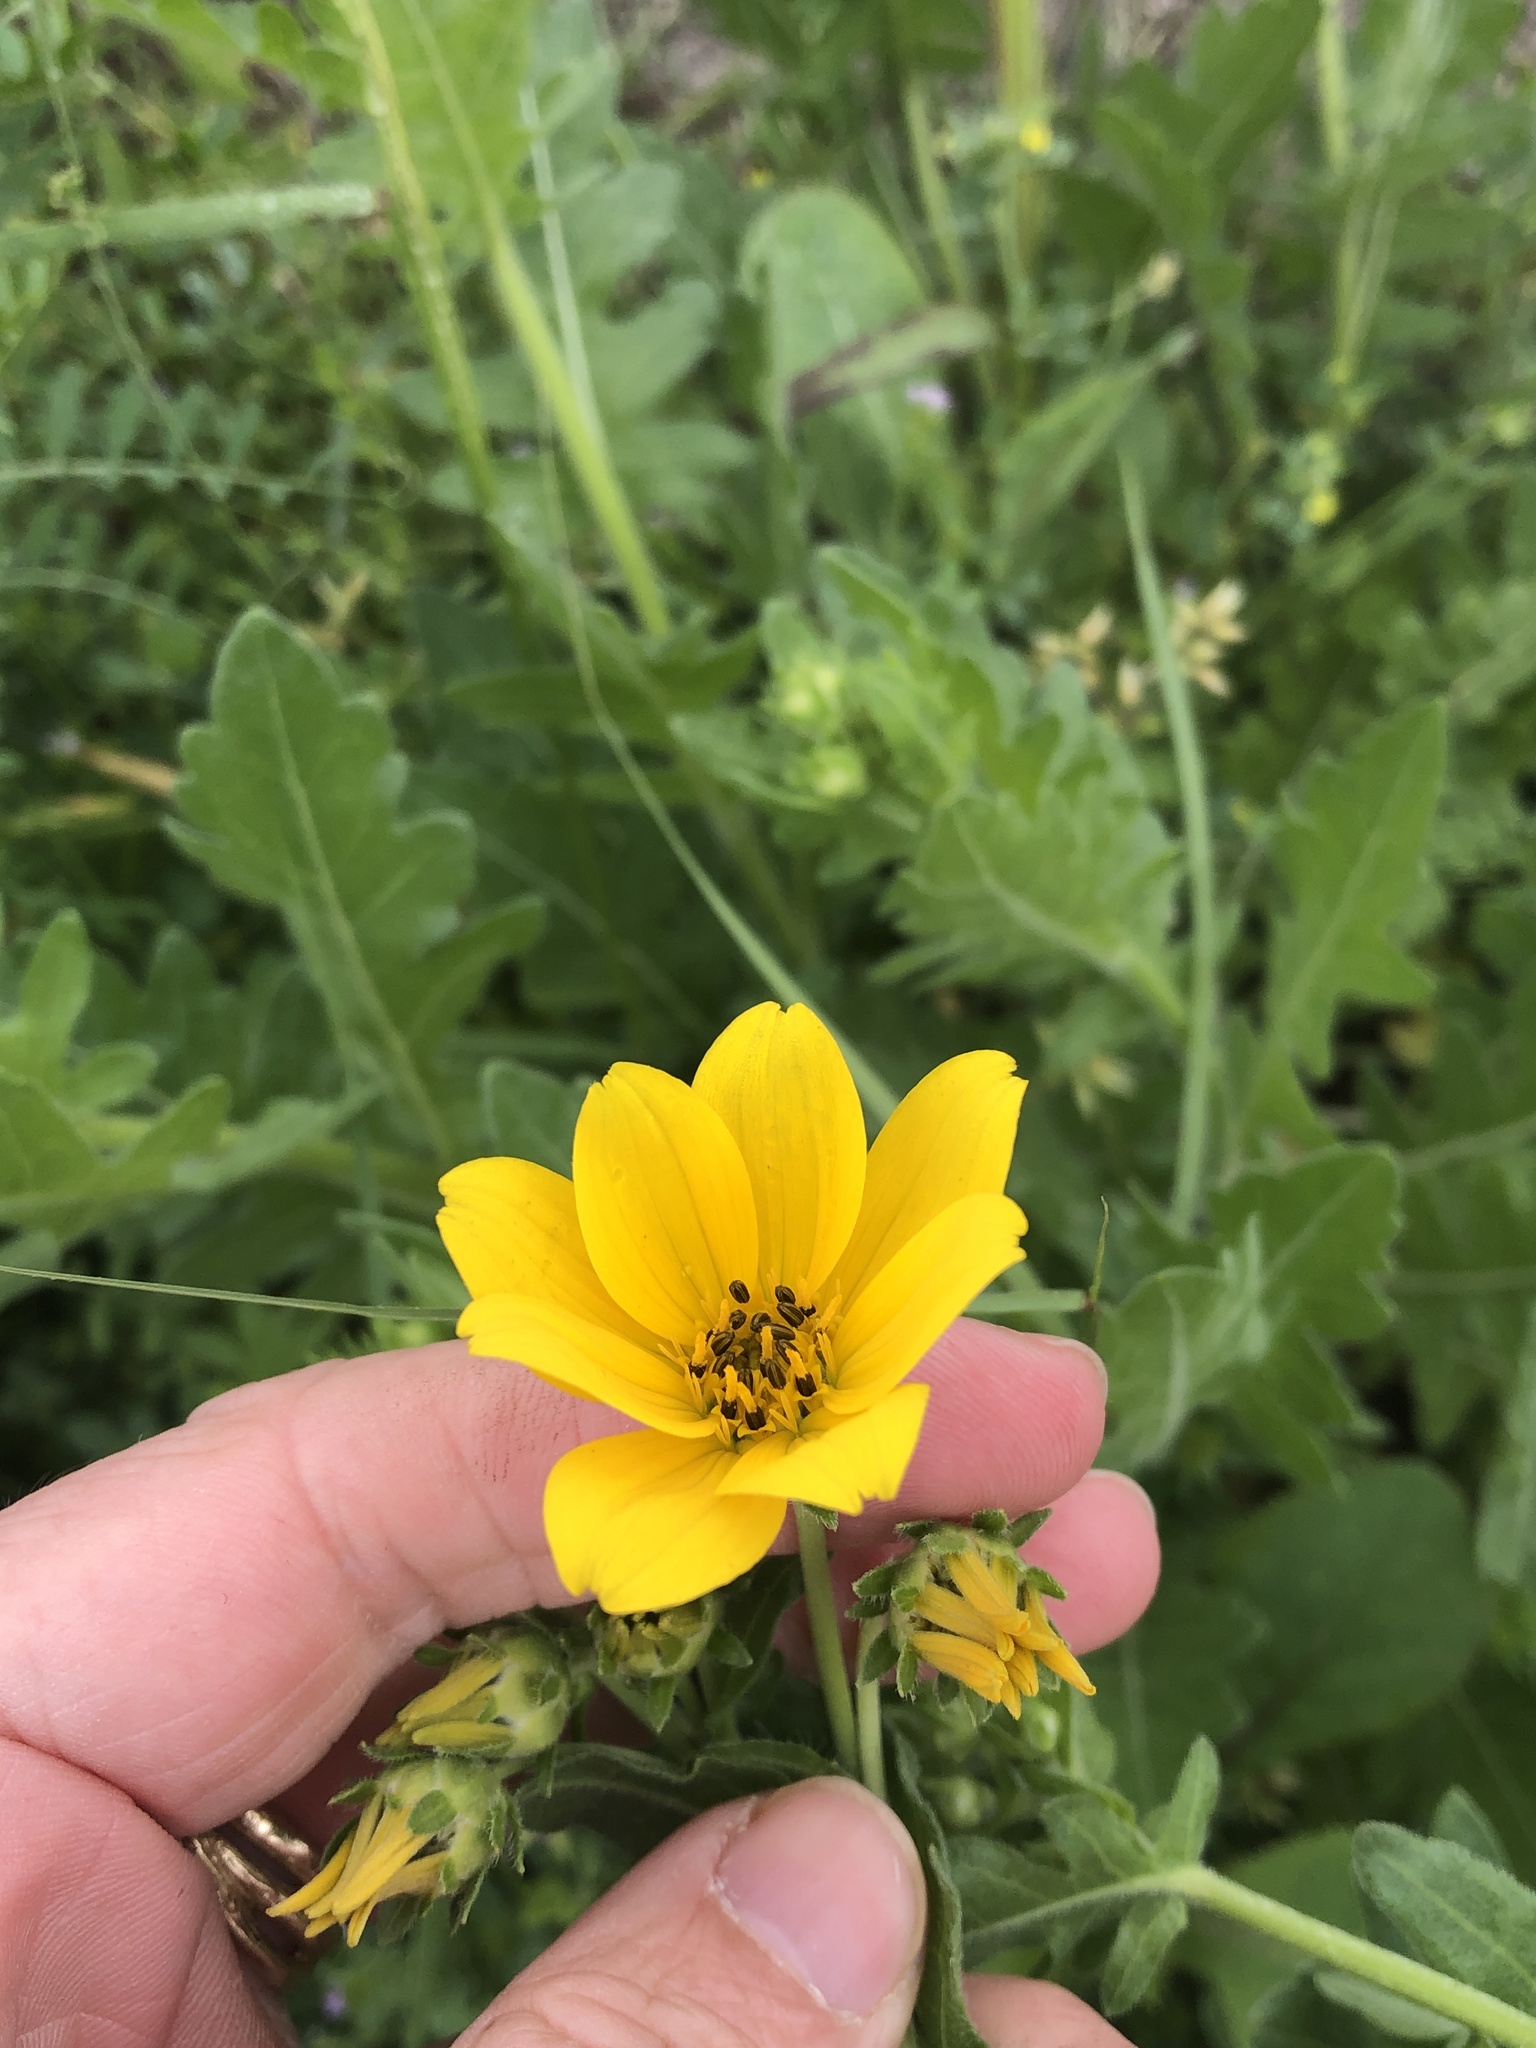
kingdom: Plantae
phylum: Tracheophyta
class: Magnoliopsida
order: Asterales
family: Asteraceae
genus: Engelmannia
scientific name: Engelmannia peristenia
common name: Engelmann's daisy
